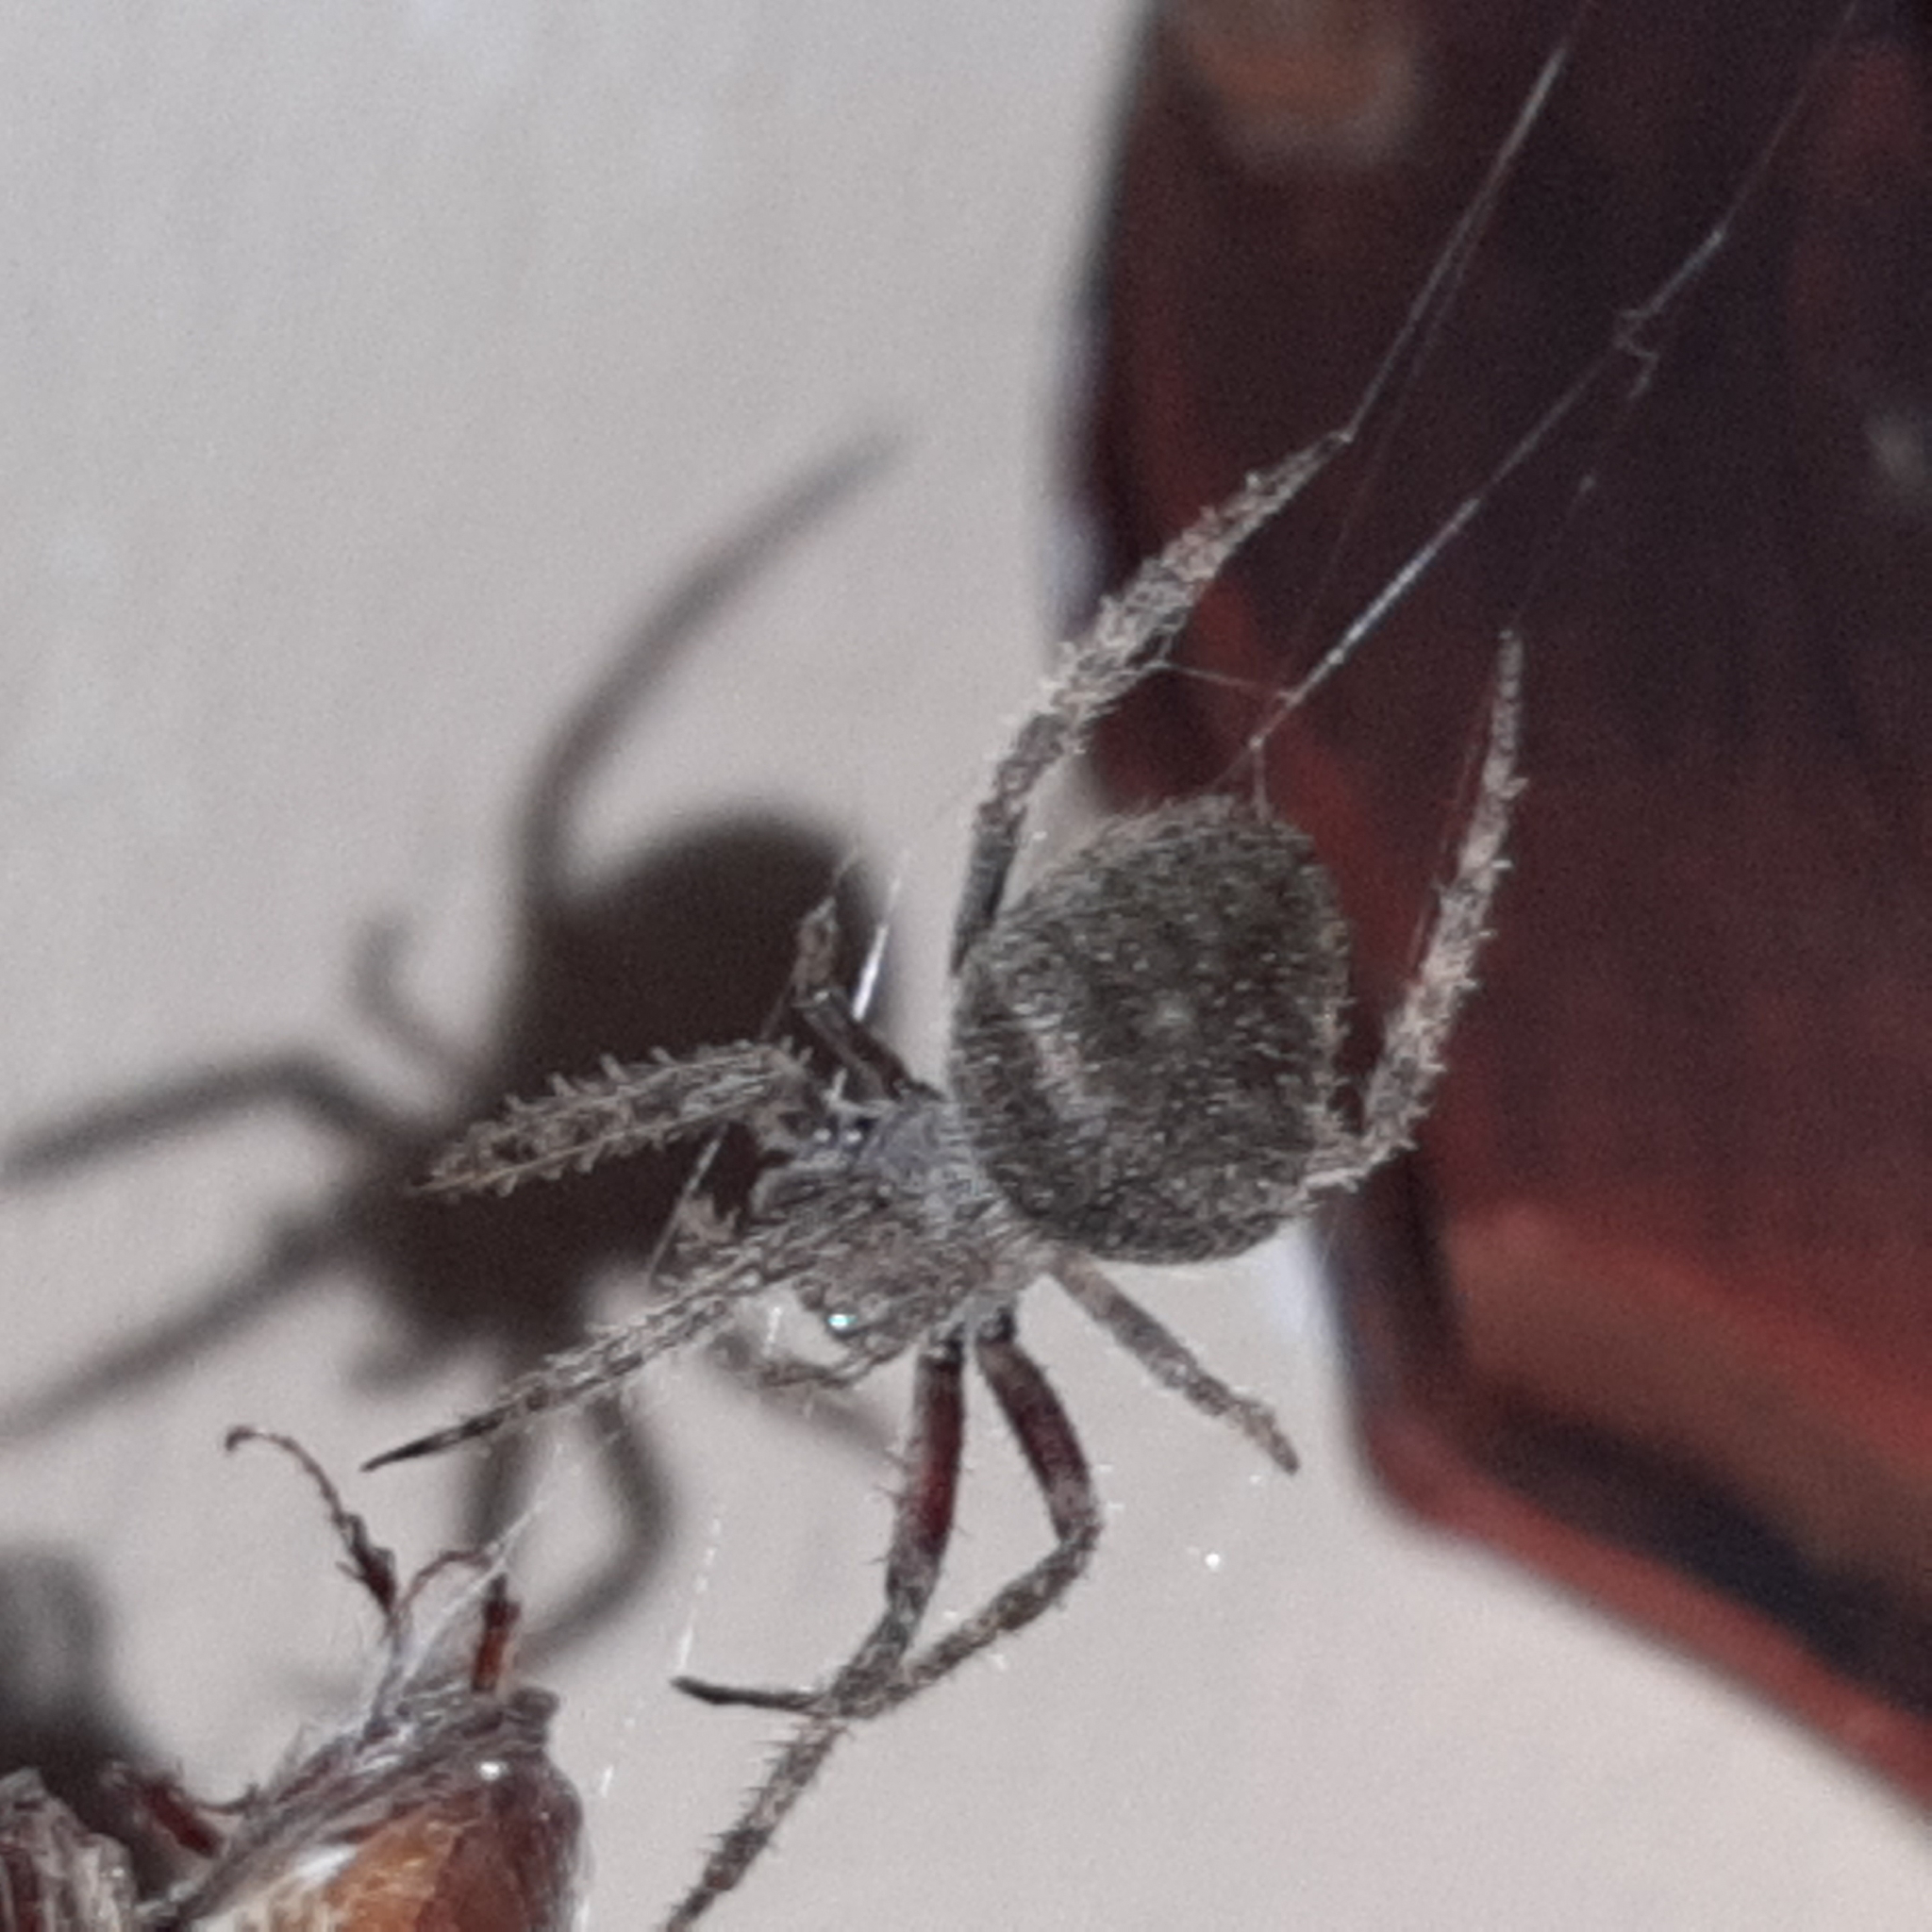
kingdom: Animalia
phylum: Arthropoda
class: Arachnida
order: Araneae
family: Araneidae
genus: Eriophora
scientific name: Eriophora edax
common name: Orb weavers
